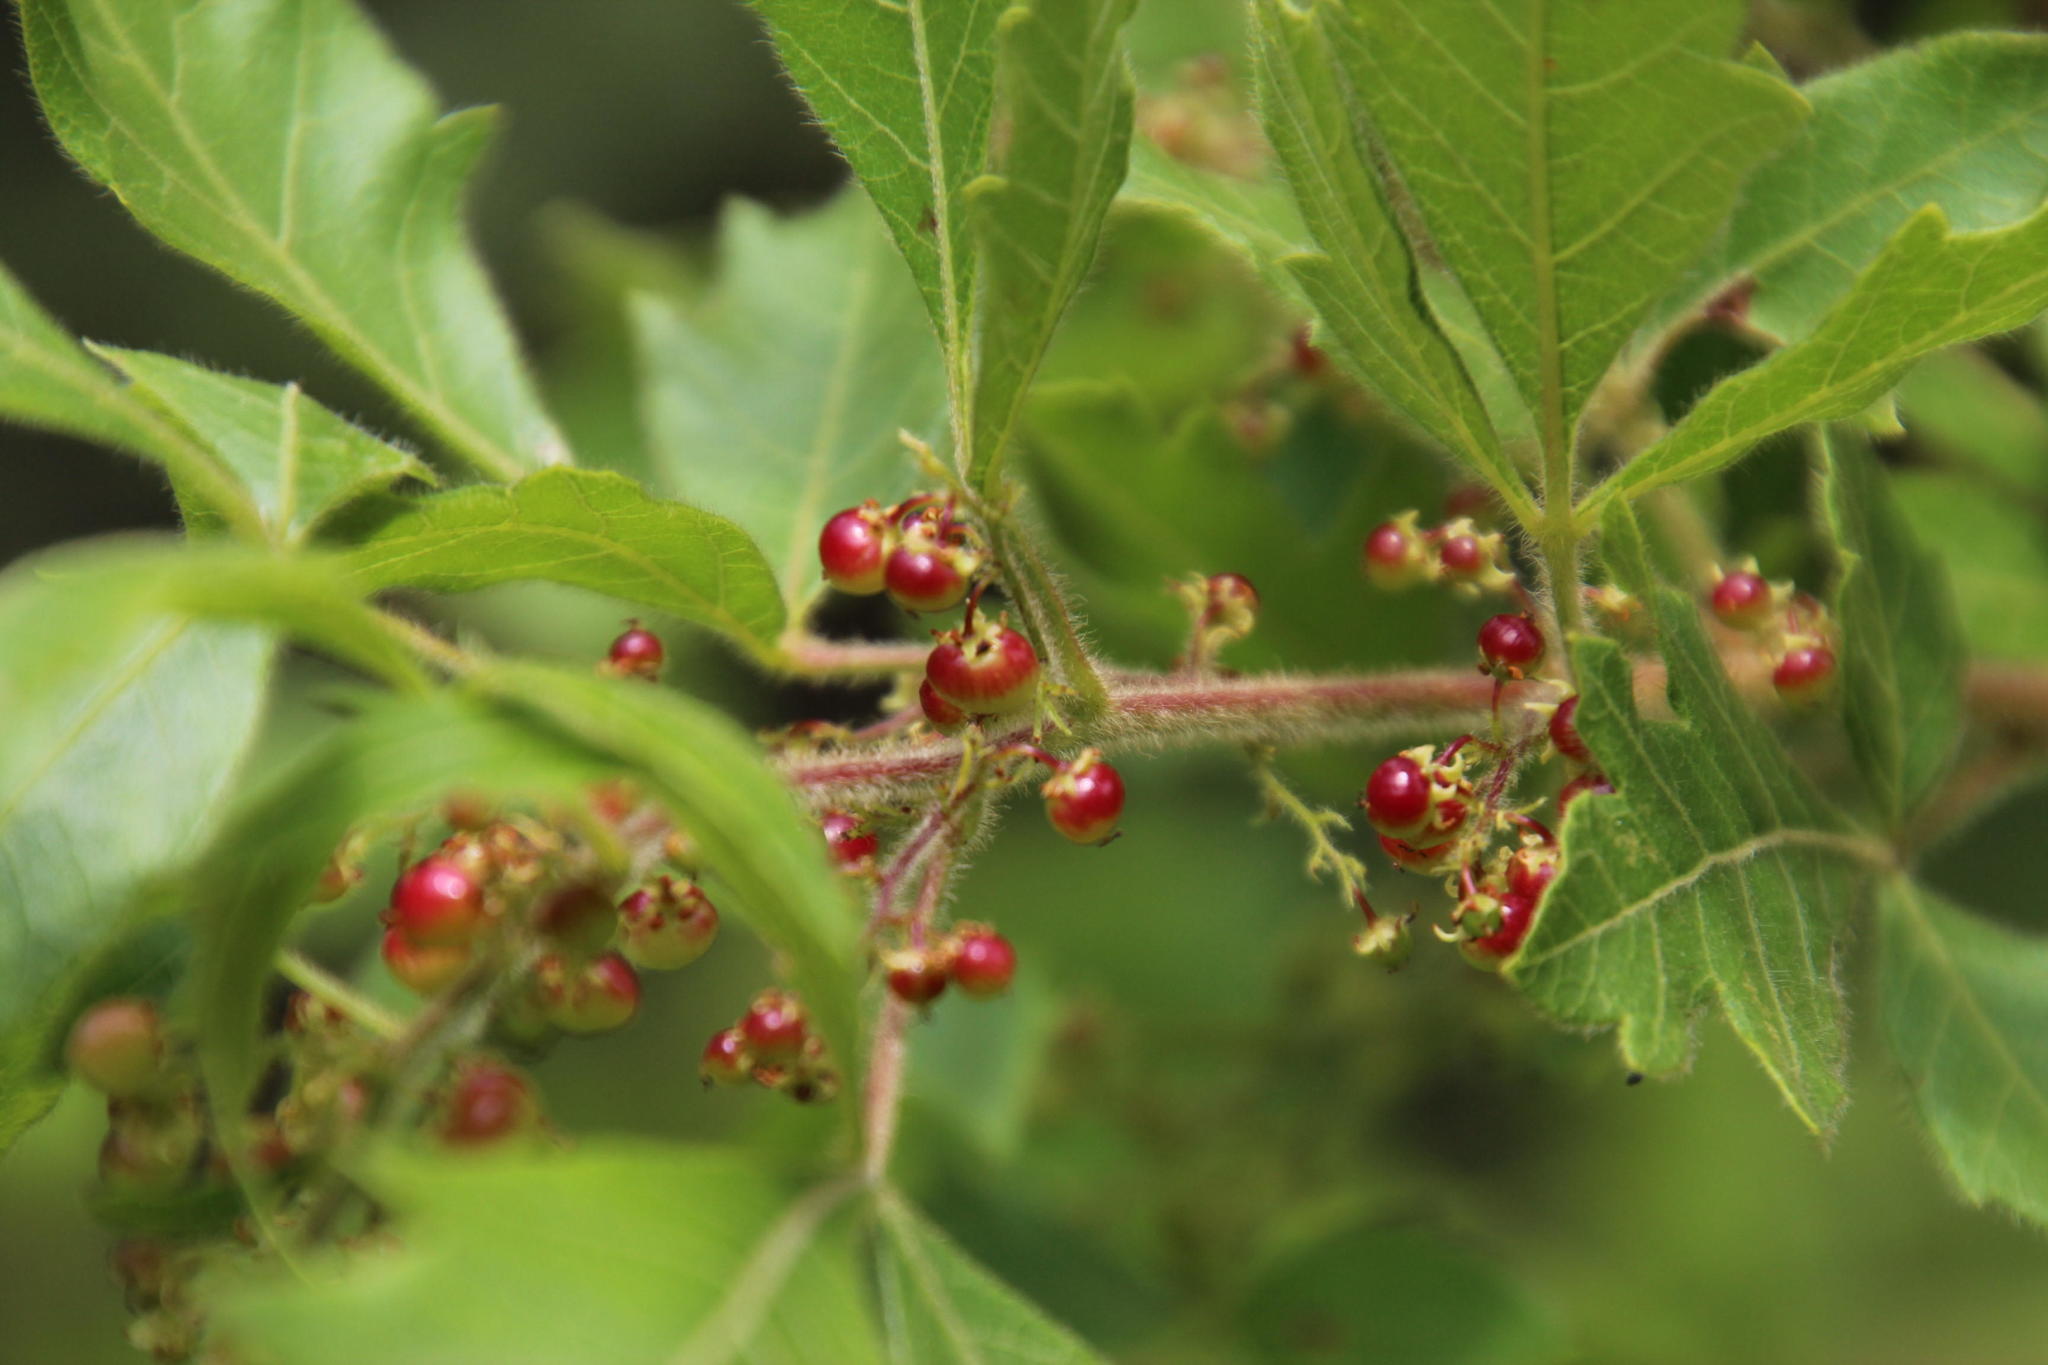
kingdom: Plantae
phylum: Tracheophyta
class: Magnoliopsida
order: Sapindales
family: Anacardiaceae
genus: Searsia
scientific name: Searsia dentata
